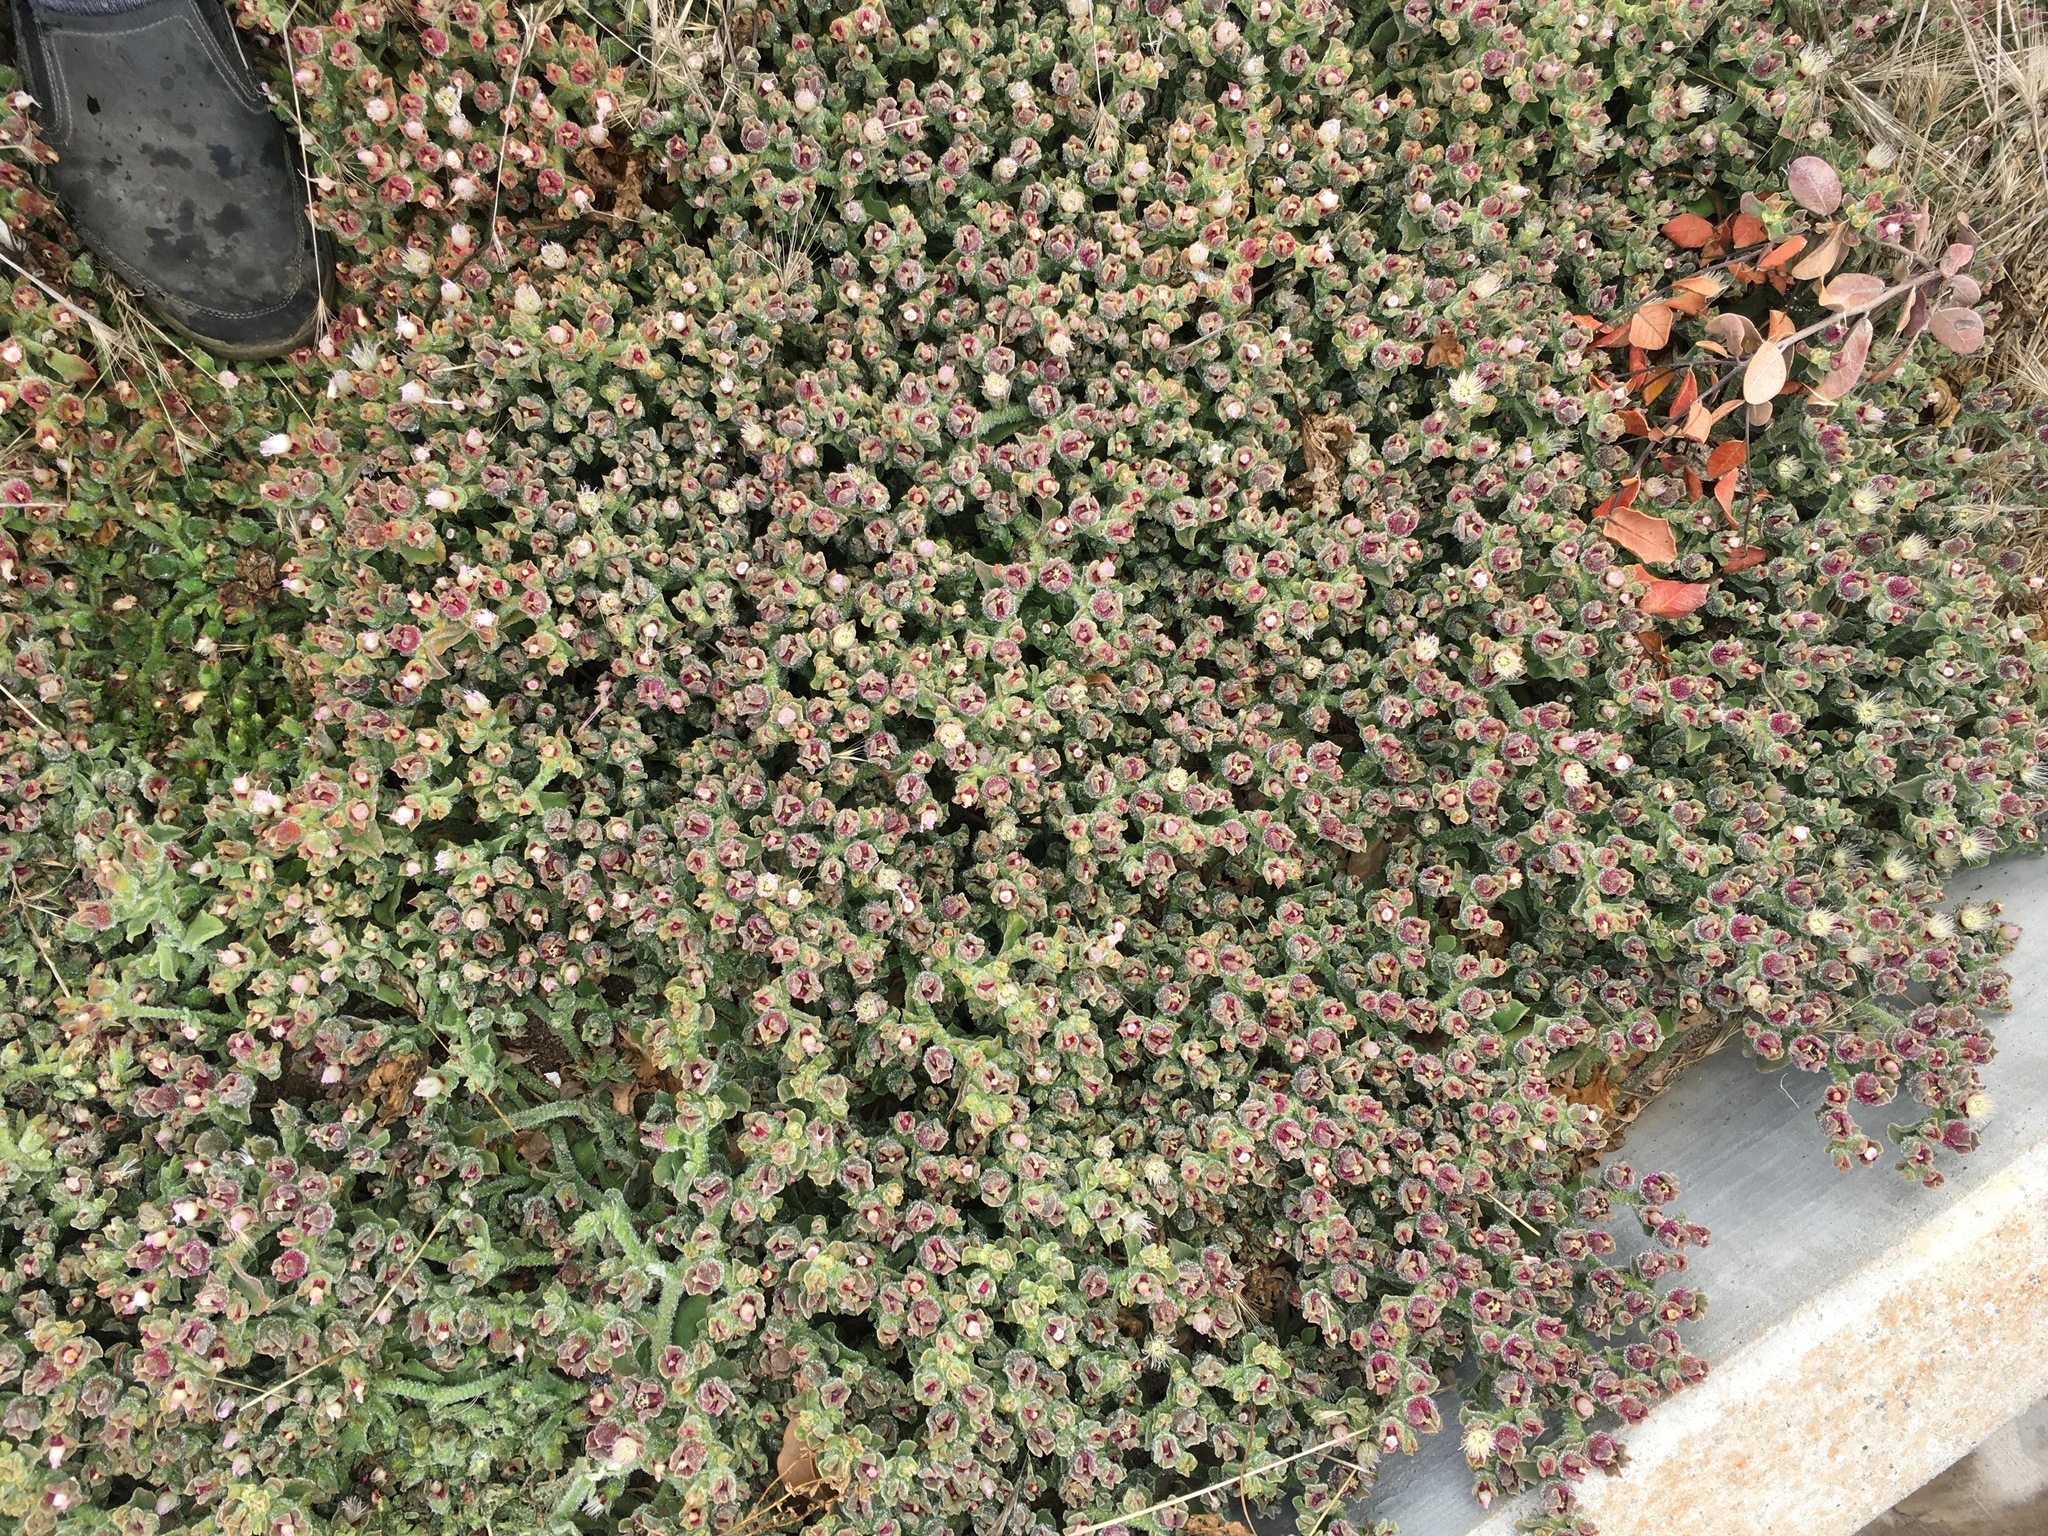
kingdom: Plantae
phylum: Tracheophyta
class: Magnoliopsida
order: Caryophyllales
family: Aizoaceae
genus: Mesembryanthemum
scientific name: Mesembryanthemum crystallinum
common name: Common iceplant
